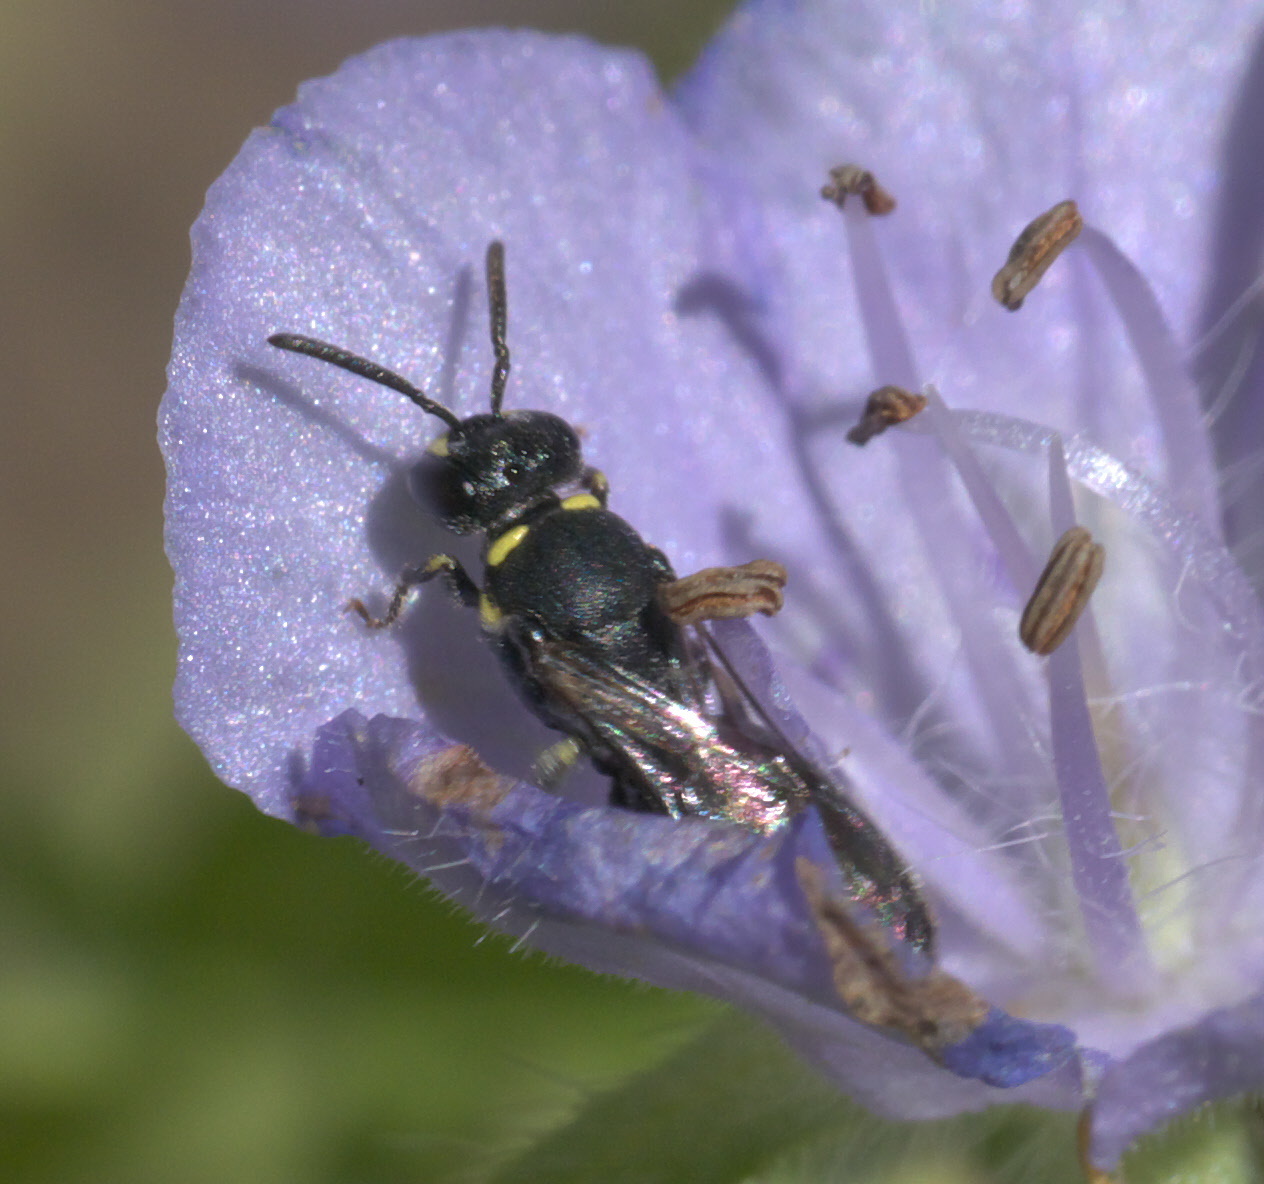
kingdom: Animalia
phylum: Arthropoda
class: Insecta
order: Hymenoptera
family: Colletidae
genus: Hylaeus
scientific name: Hylaeus modestus
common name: Yellow-faced bee
